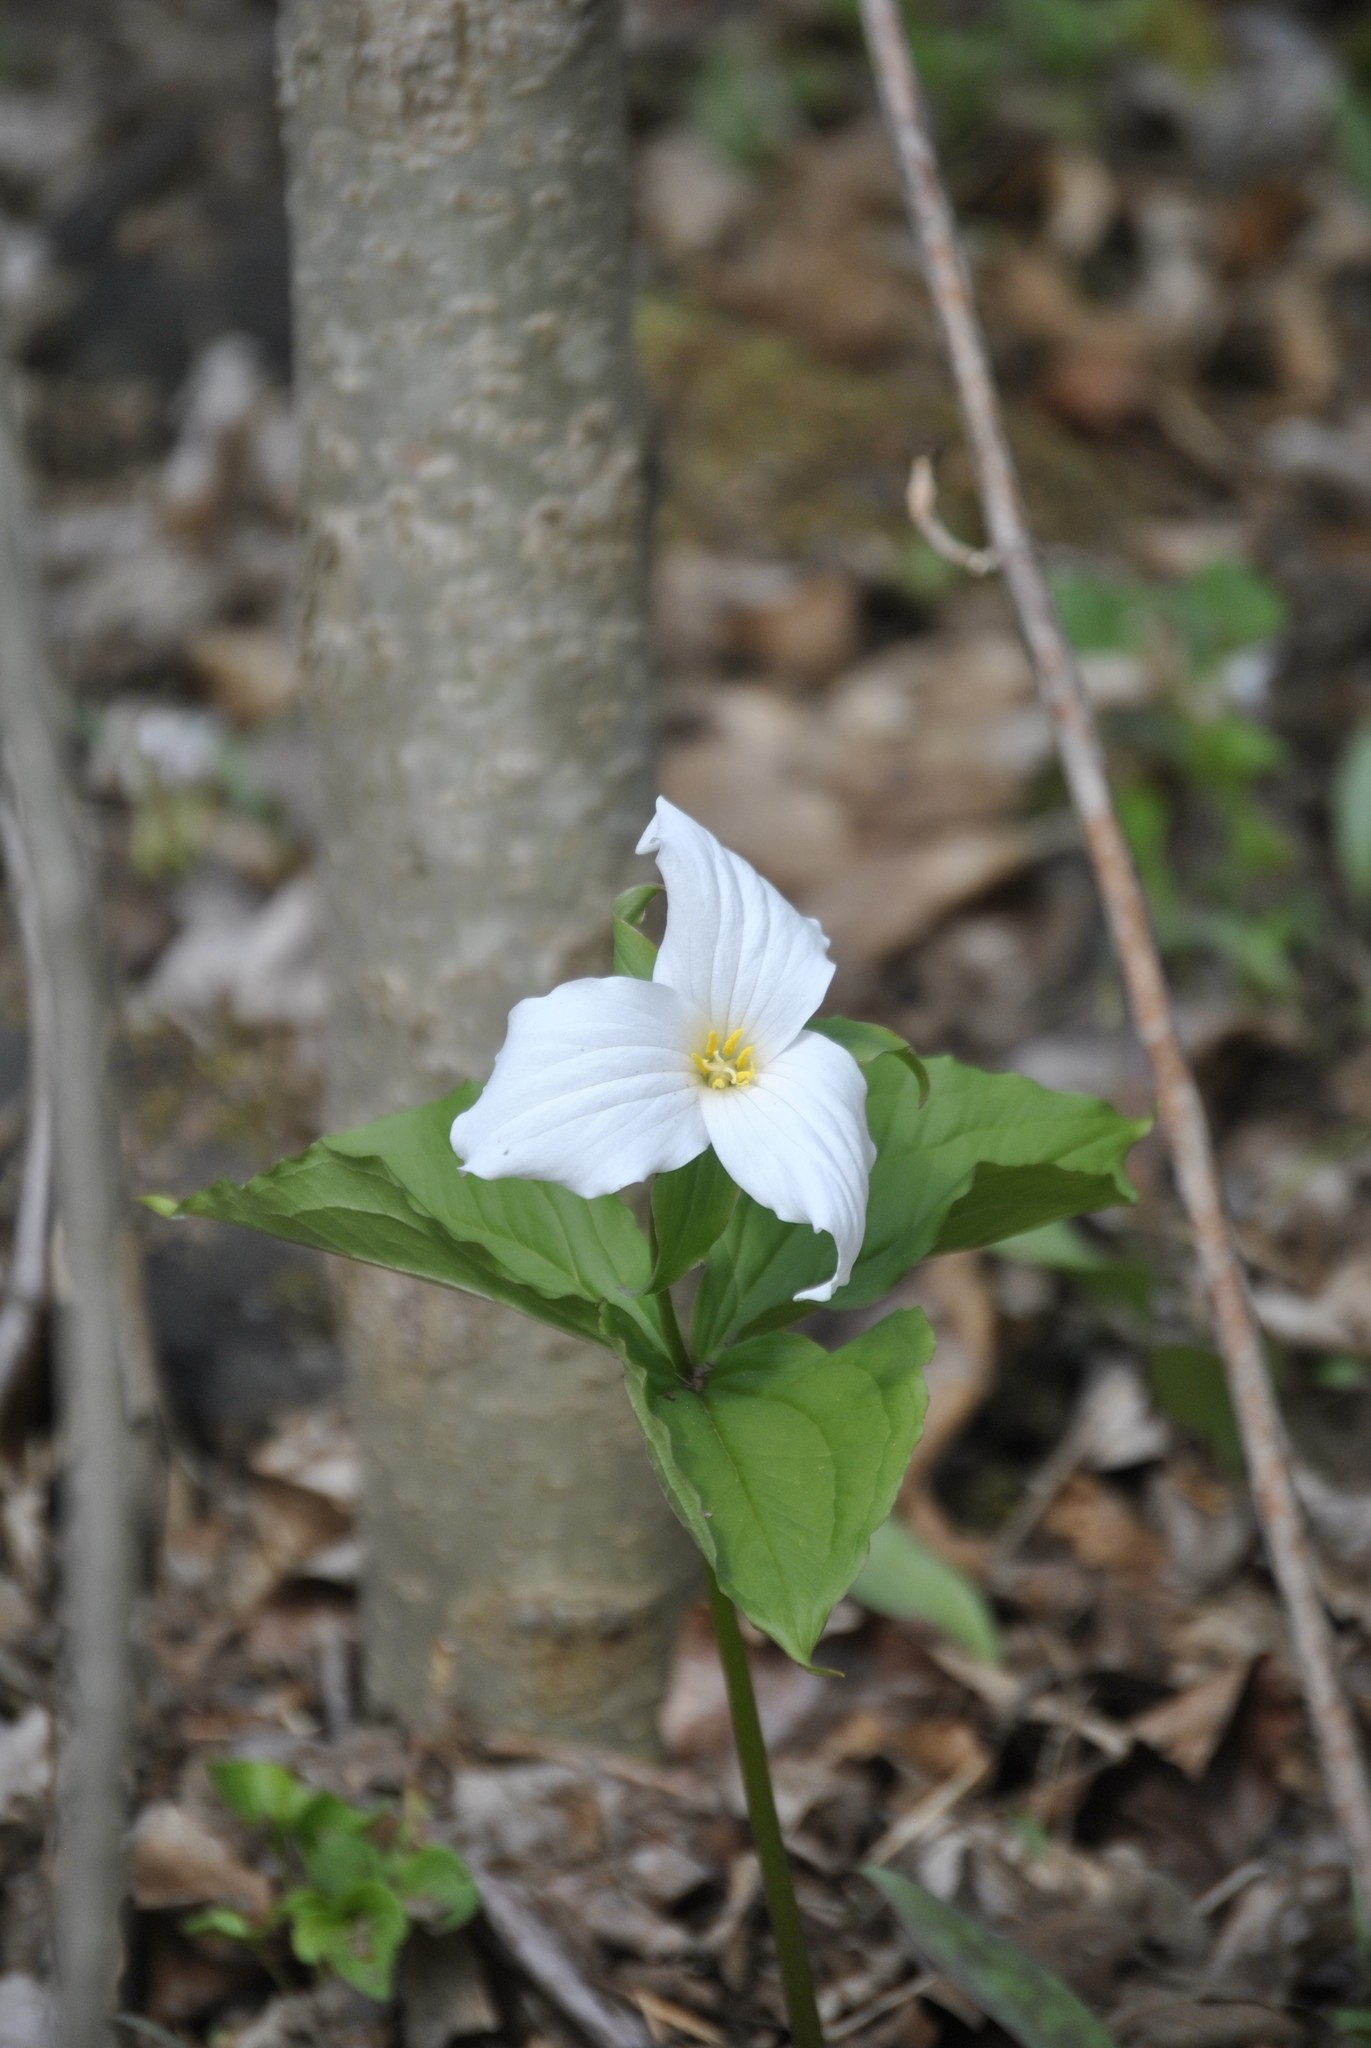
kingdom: Plantae
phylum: Tracheophyta
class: Liliopsida
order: Liliales
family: Melanthiaceae
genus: Trillium
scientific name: Trillium grandiflorum
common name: Great white trillium
